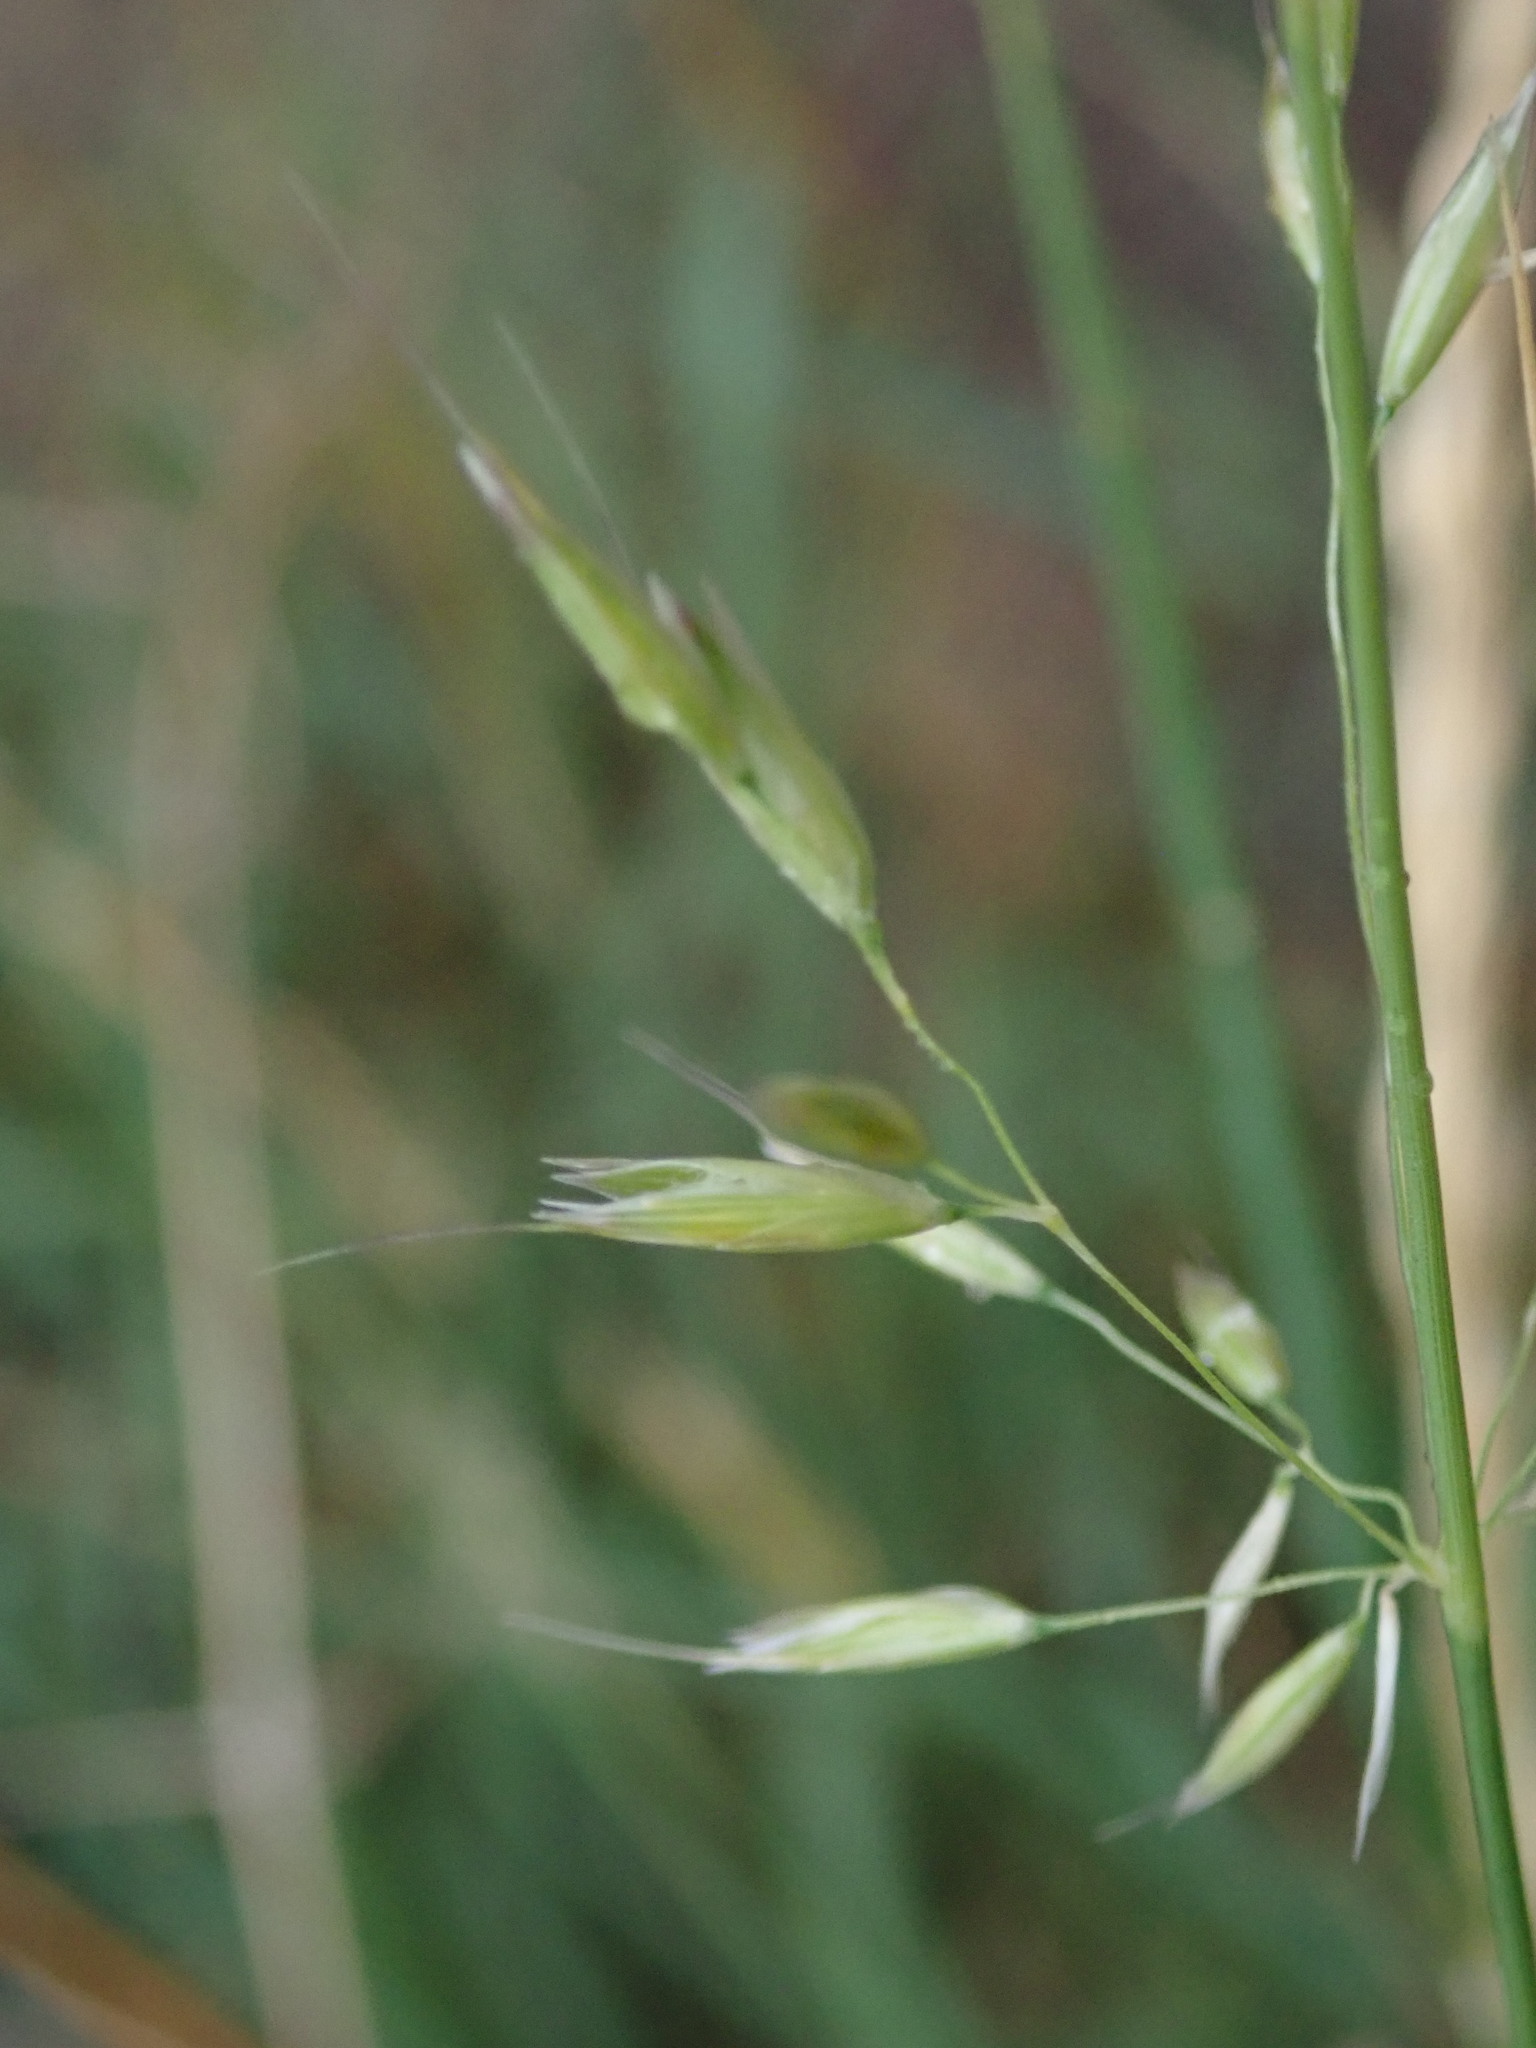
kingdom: Plantae
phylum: Tracheophyta
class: Liliopsida
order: Poales
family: Poaceae
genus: Arrhenatherum
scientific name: Arrhenatherum elatius
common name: Tall oatgrass
